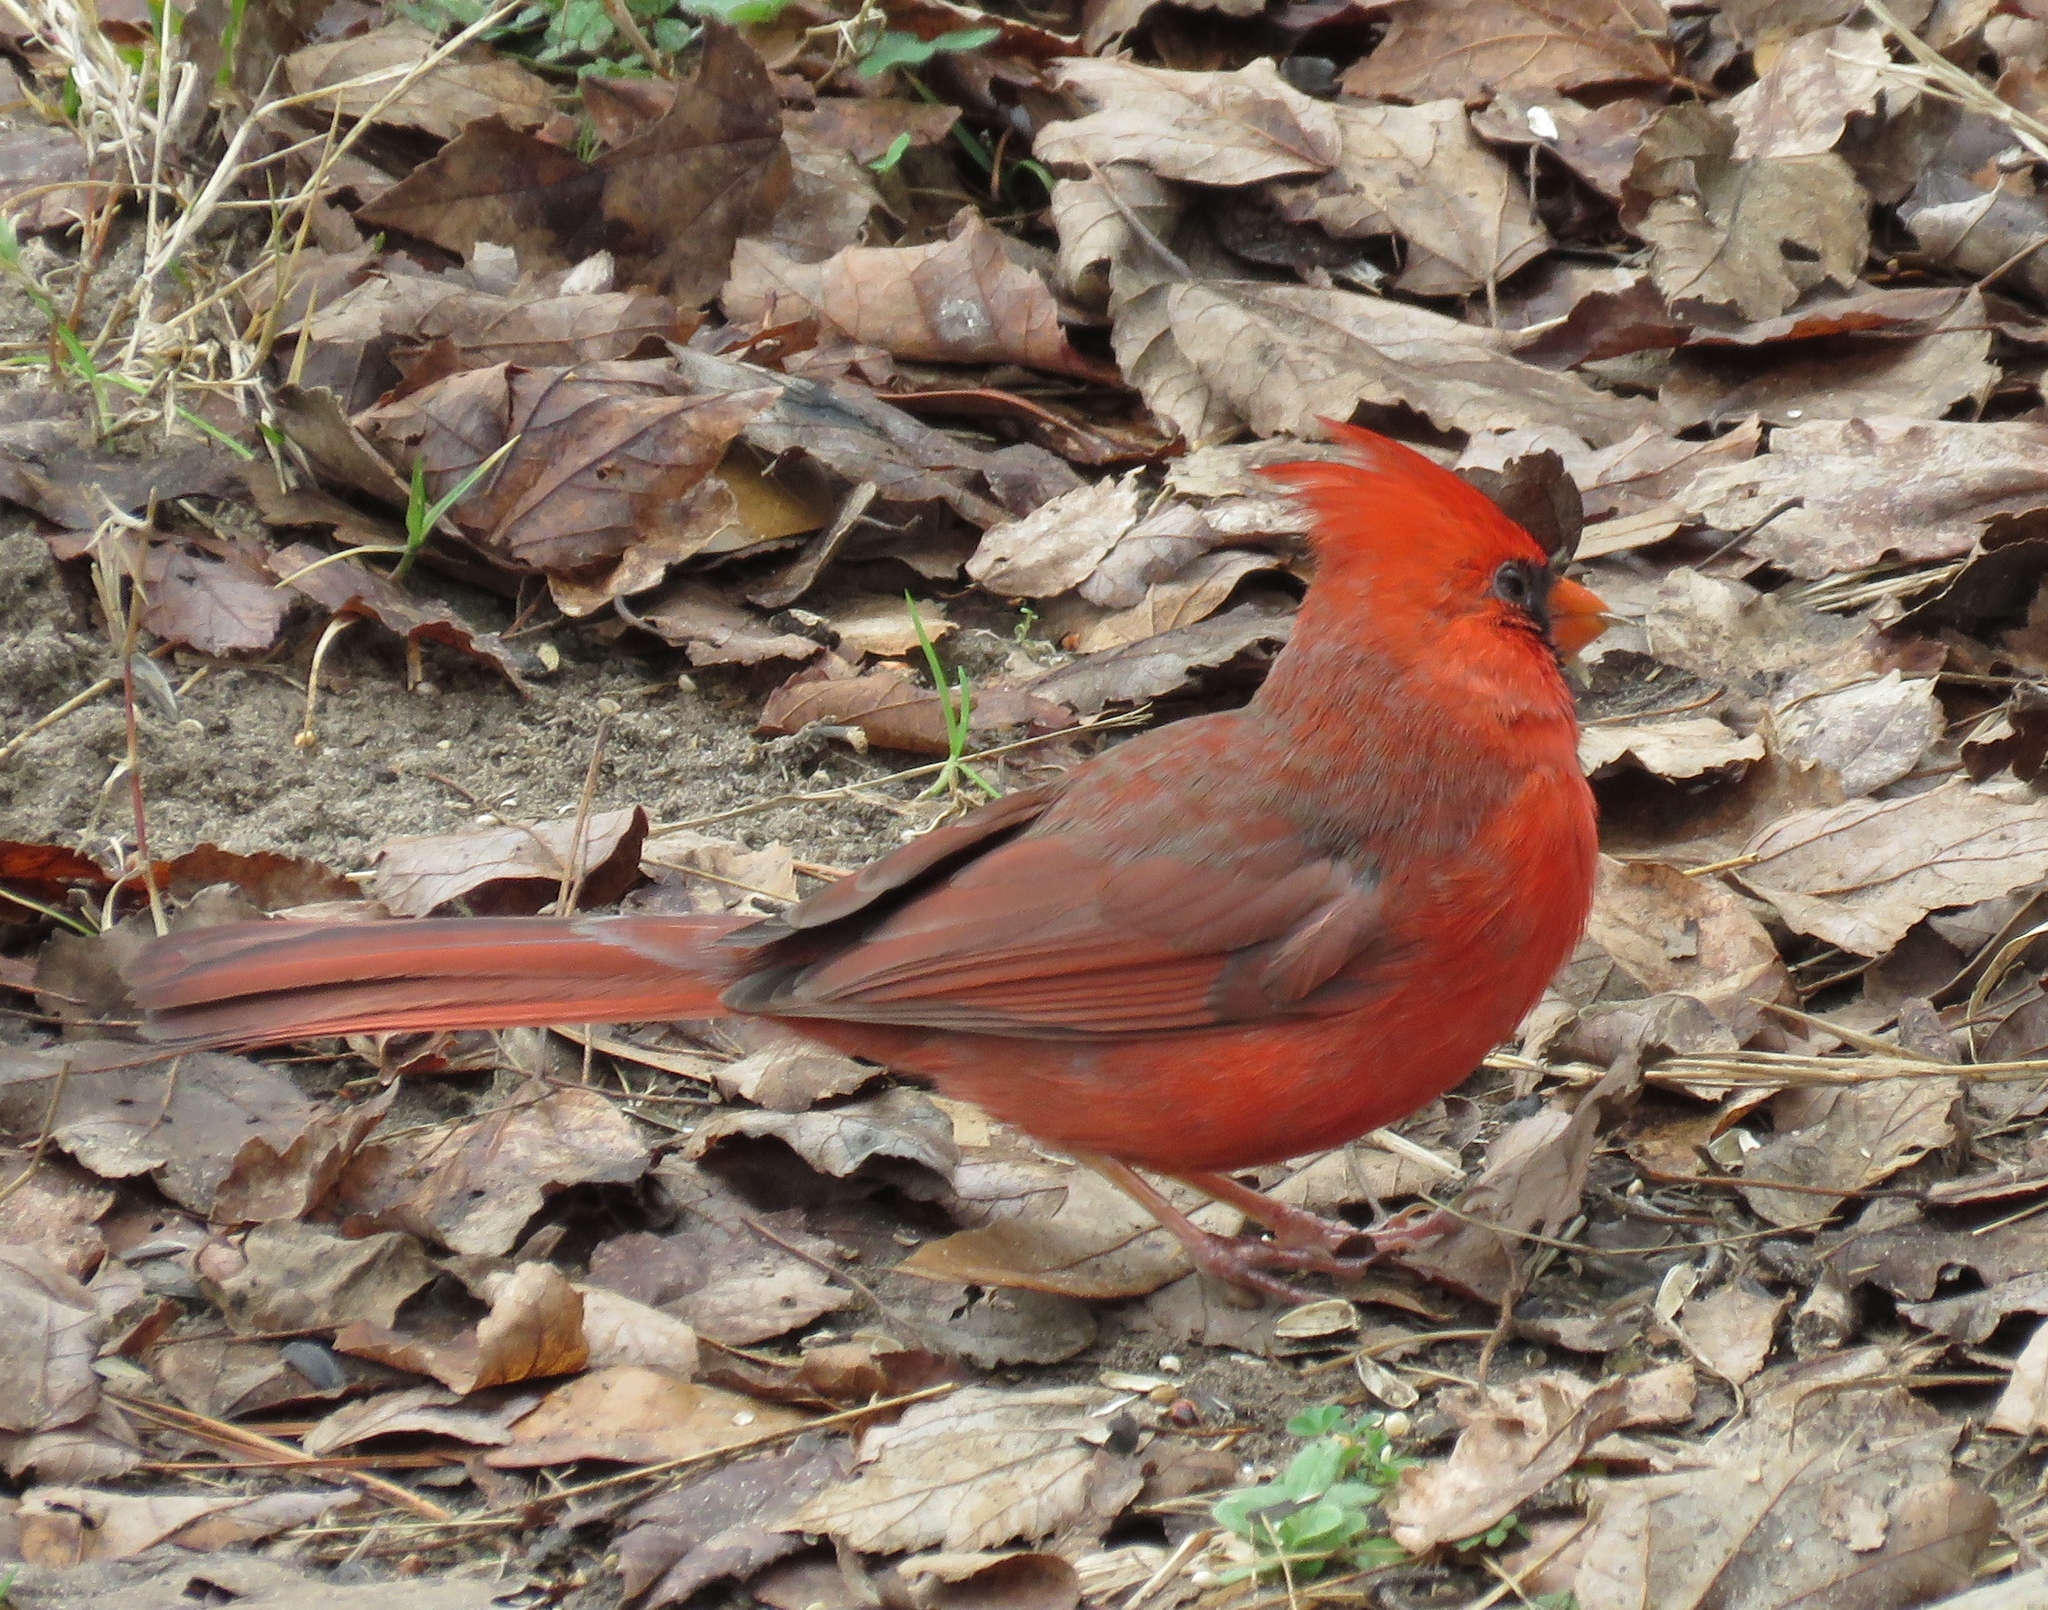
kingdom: Animalia
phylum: Chordata
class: Aves
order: Passeriformes
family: Cardinalidae
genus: Cardinalis
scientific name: Cardinalis cardinalis
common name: Northern cardinal
